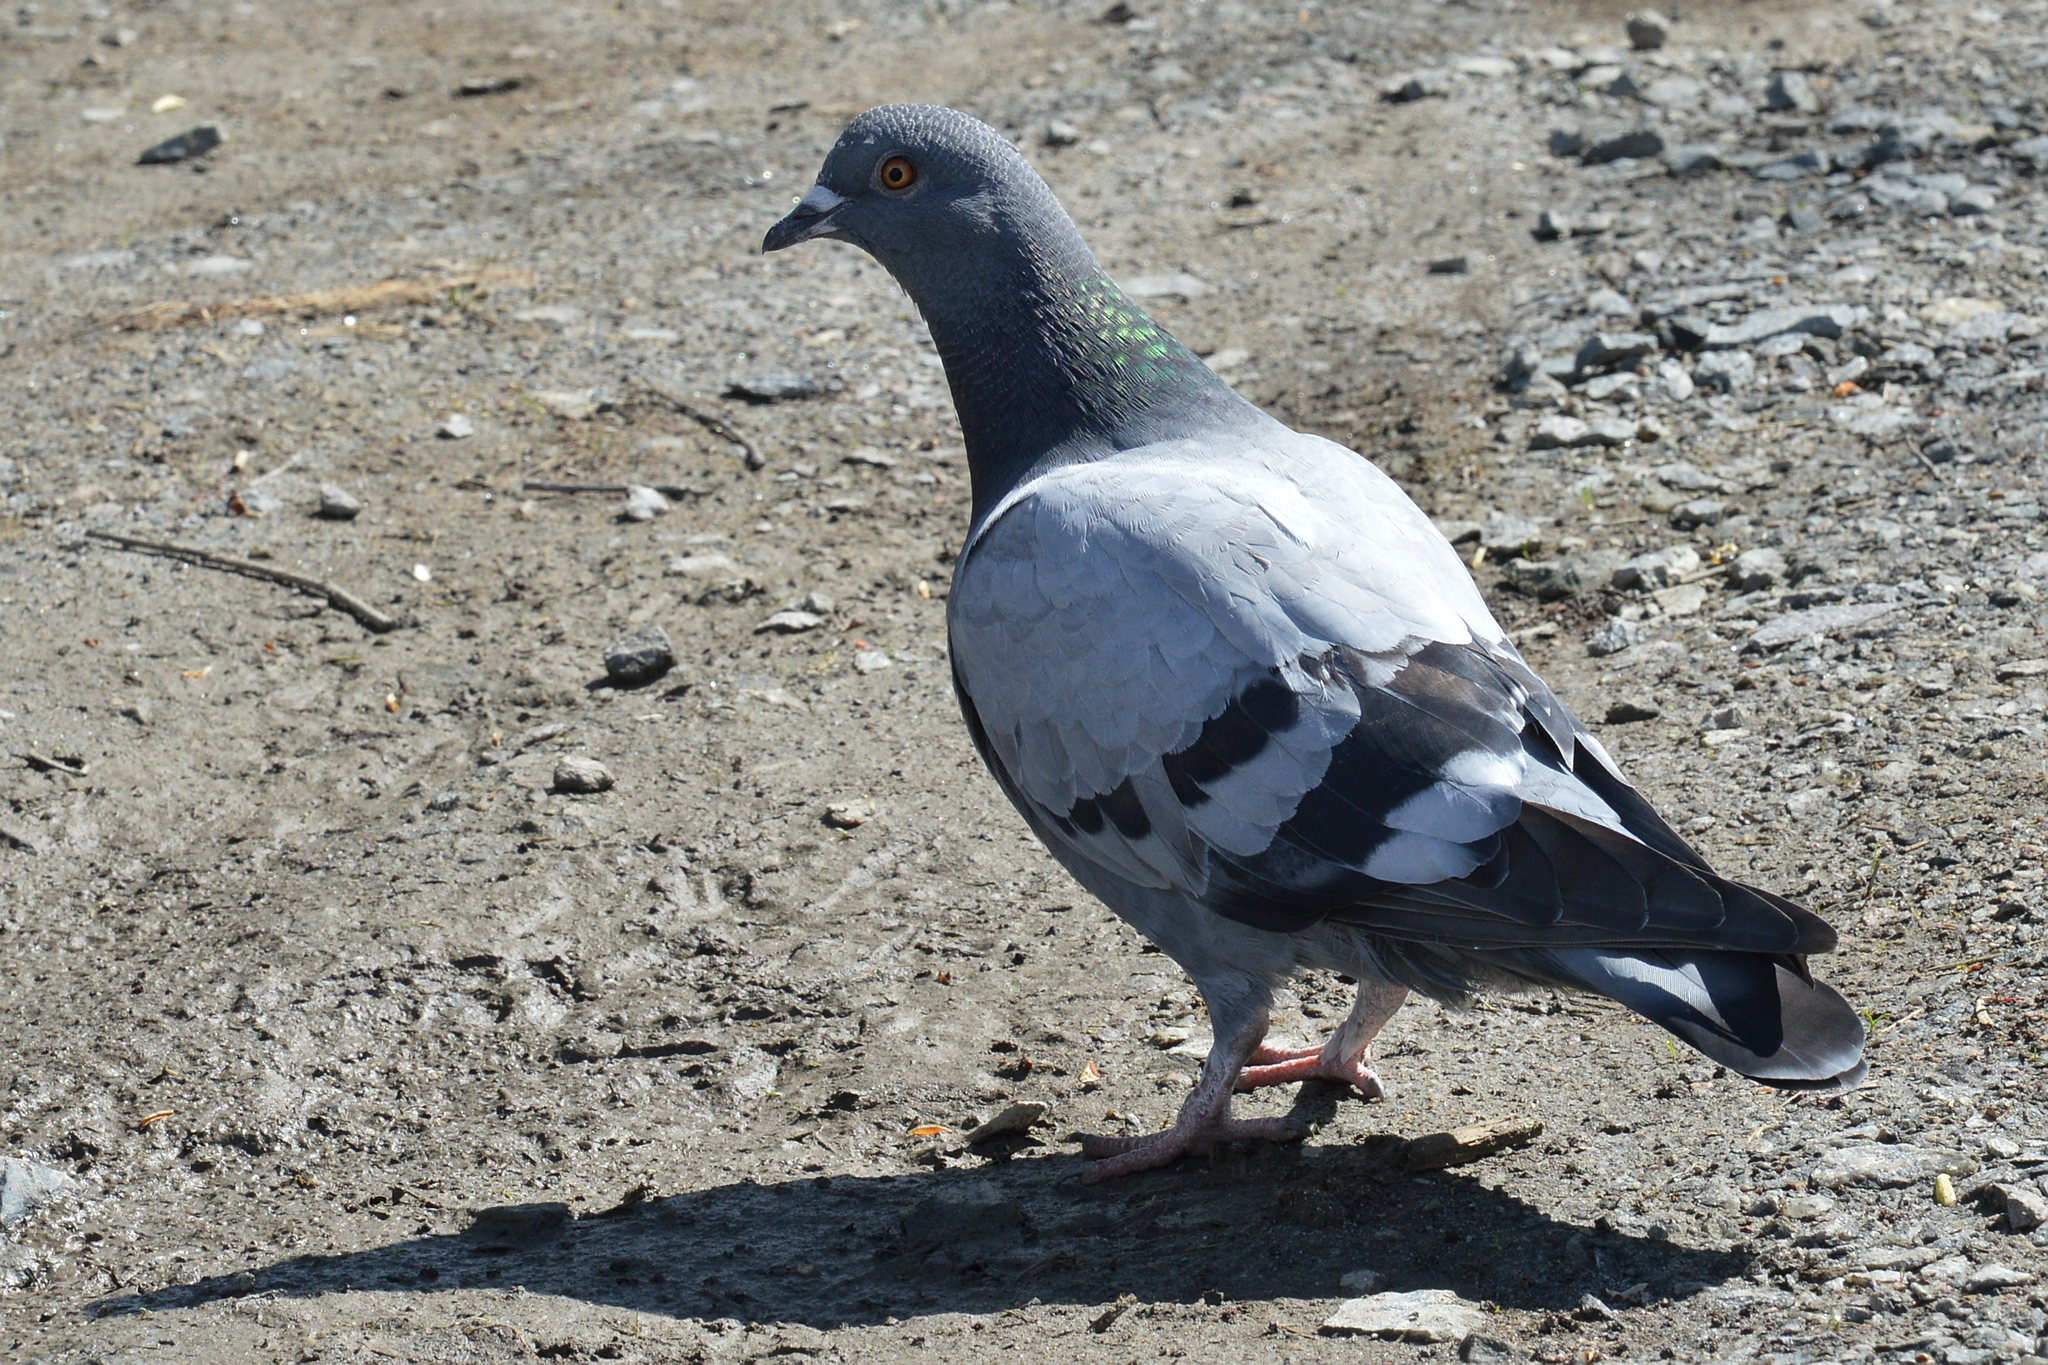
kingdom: Animalia
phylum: Chordata
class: Aves
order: Columbiformes
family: Columbidae
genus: Columba
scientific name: Columba livia
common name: Rock pigeon
